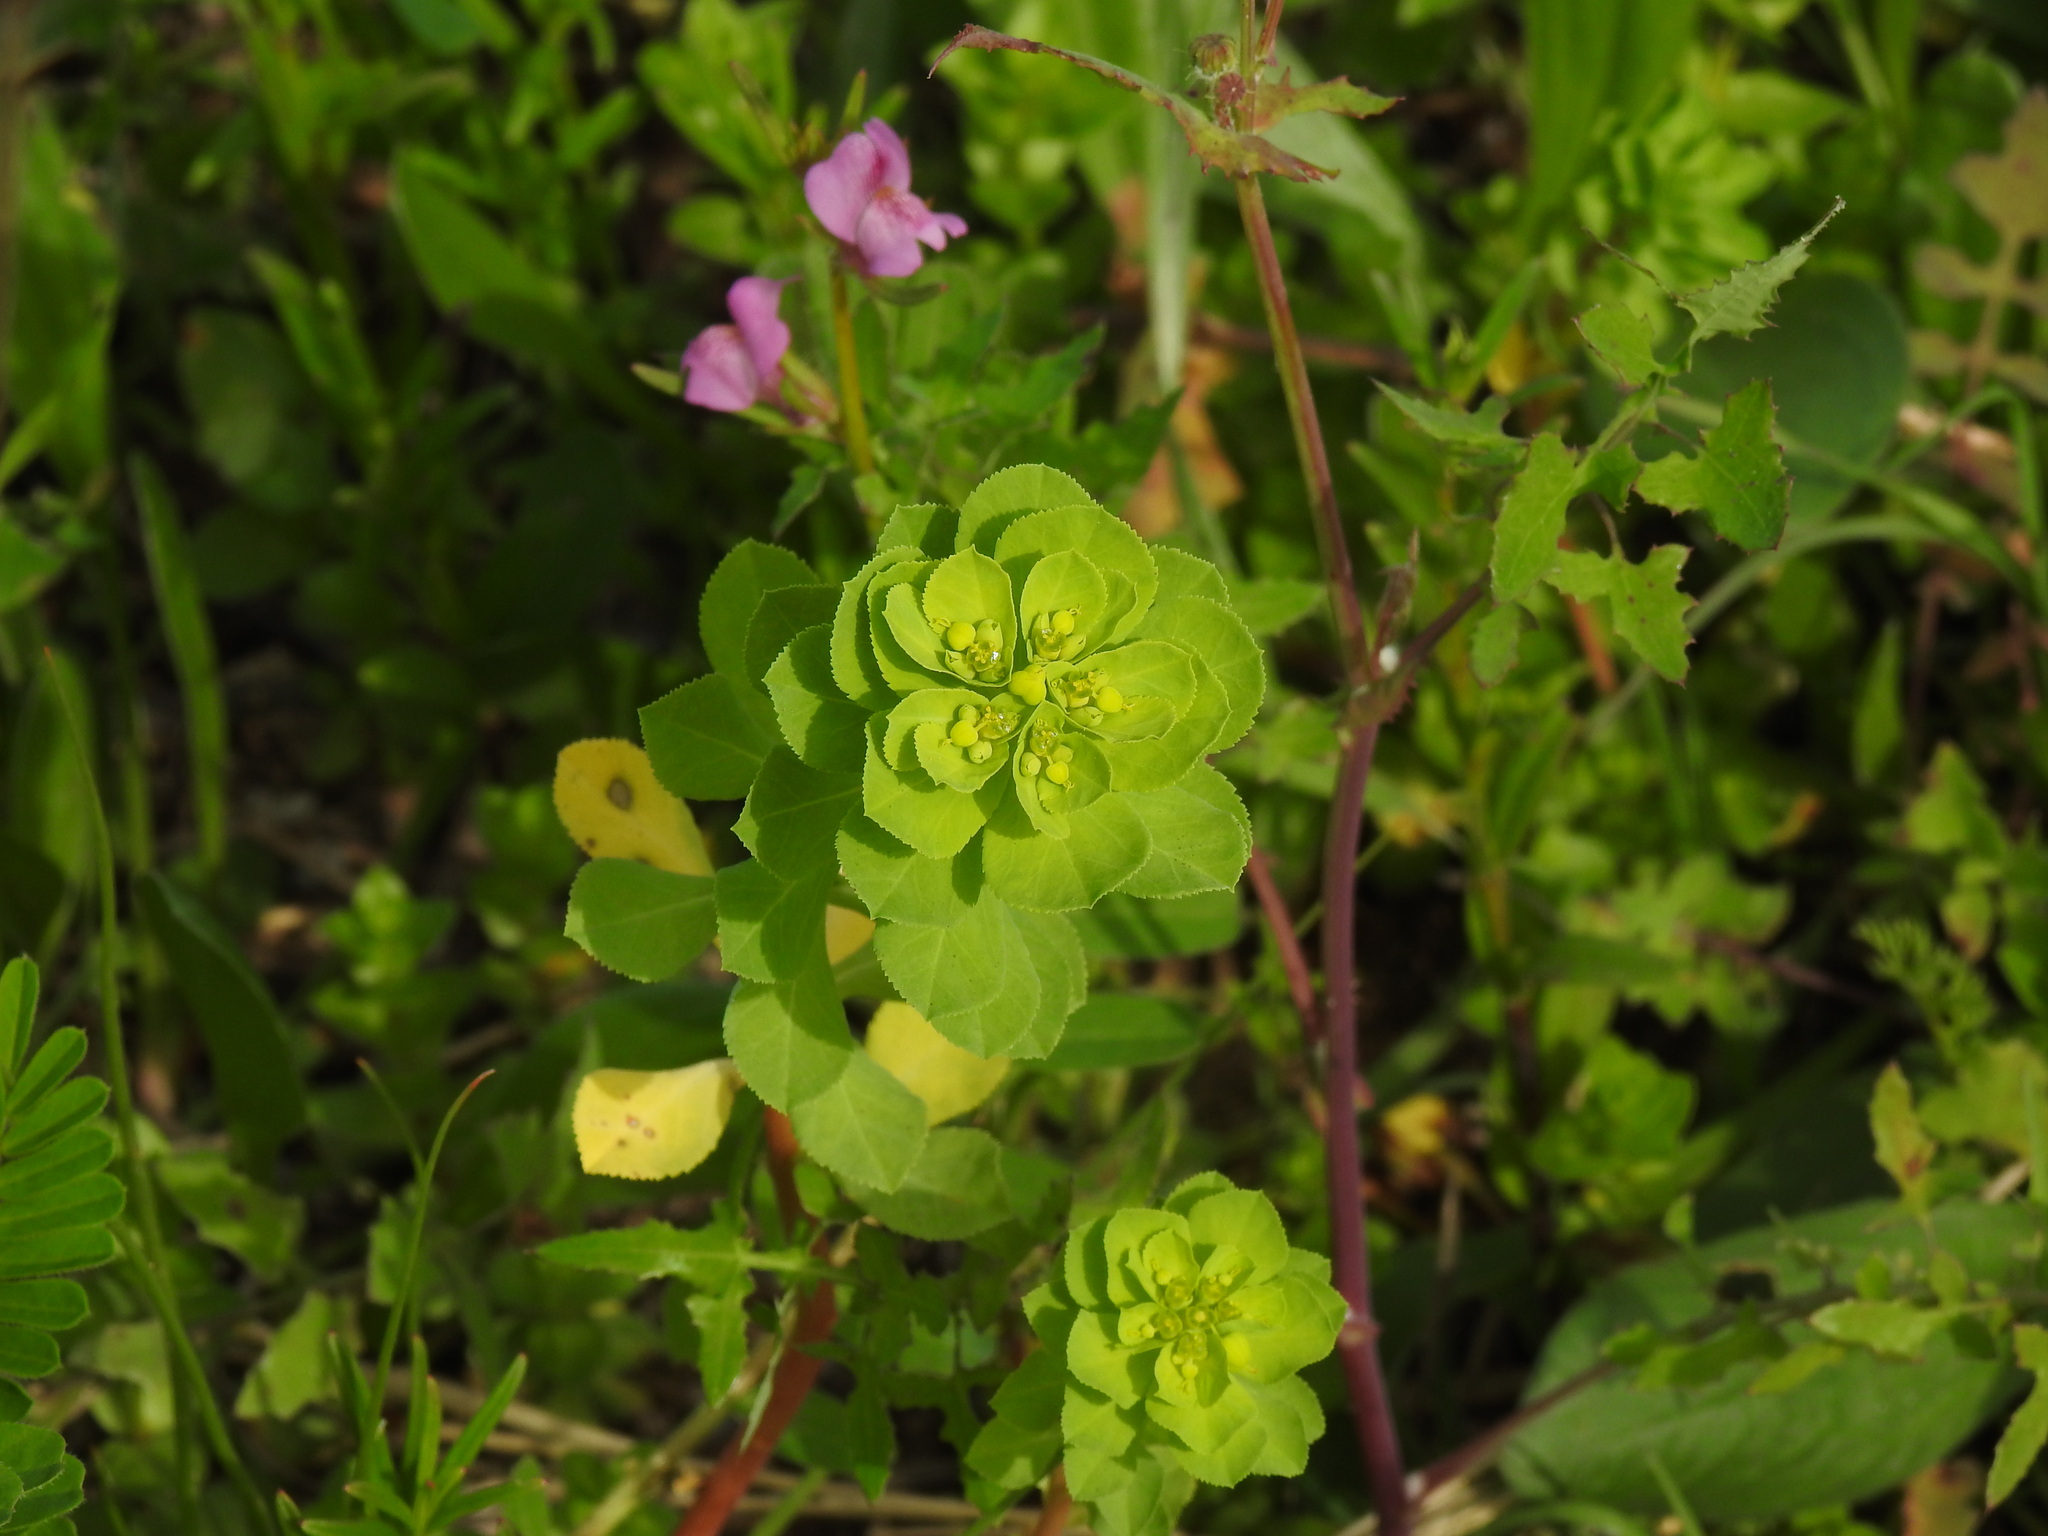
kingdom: Plantae
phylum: Tracheophyta
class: Magnoliopsida
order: Malpighiales
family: Euphorbiaceae
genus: Euphorbia
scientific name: Euphorbia helioscopia
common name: Sun spurge
